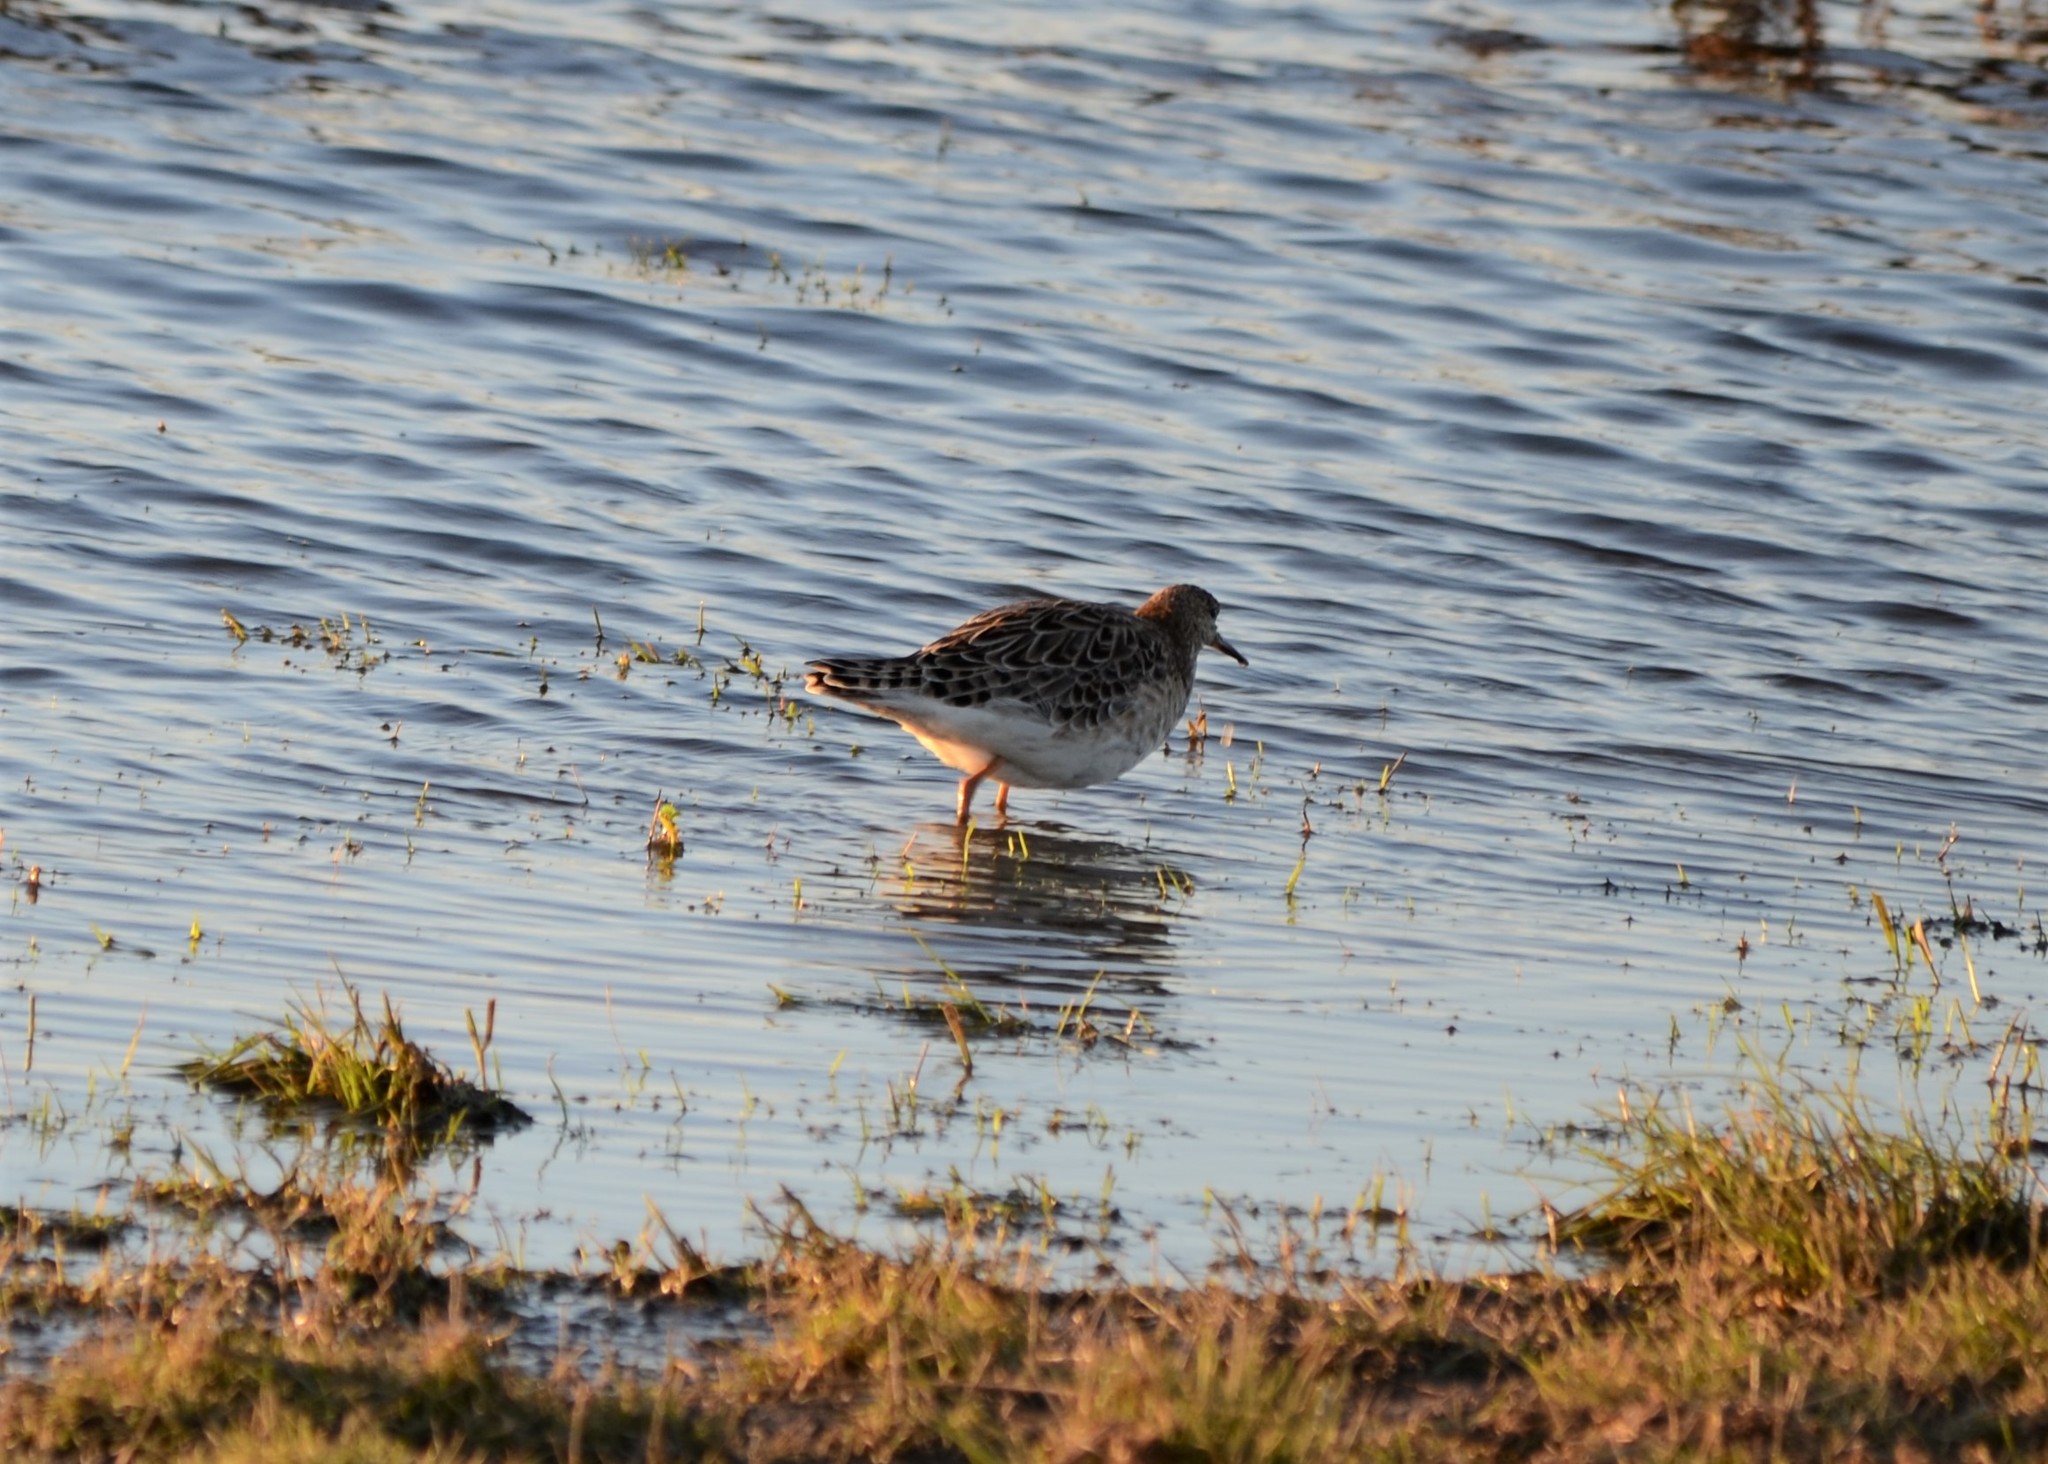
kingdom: Animalia
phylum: Chordata
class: Aves
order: Charadriiformes
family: Scolopacidae
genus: Calidris
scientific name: Calidris pugnax
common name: Ruff
